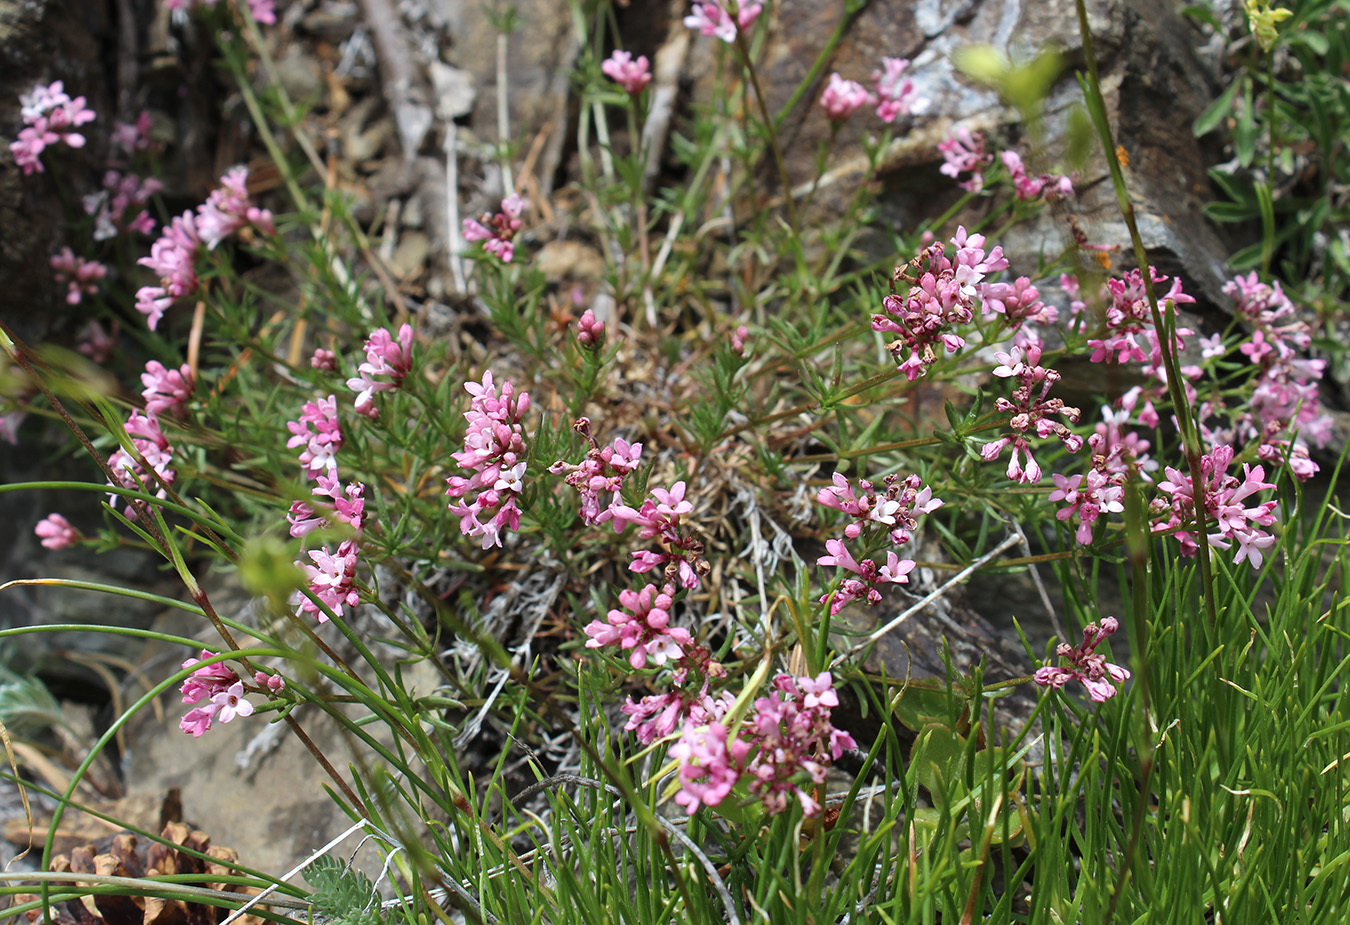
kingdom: Plantae
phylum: Tracheophyta
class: Magnoliopsida
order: Gentianales
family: Rubiaceae
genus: Cynanchica
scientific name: Cynanchica cristata
